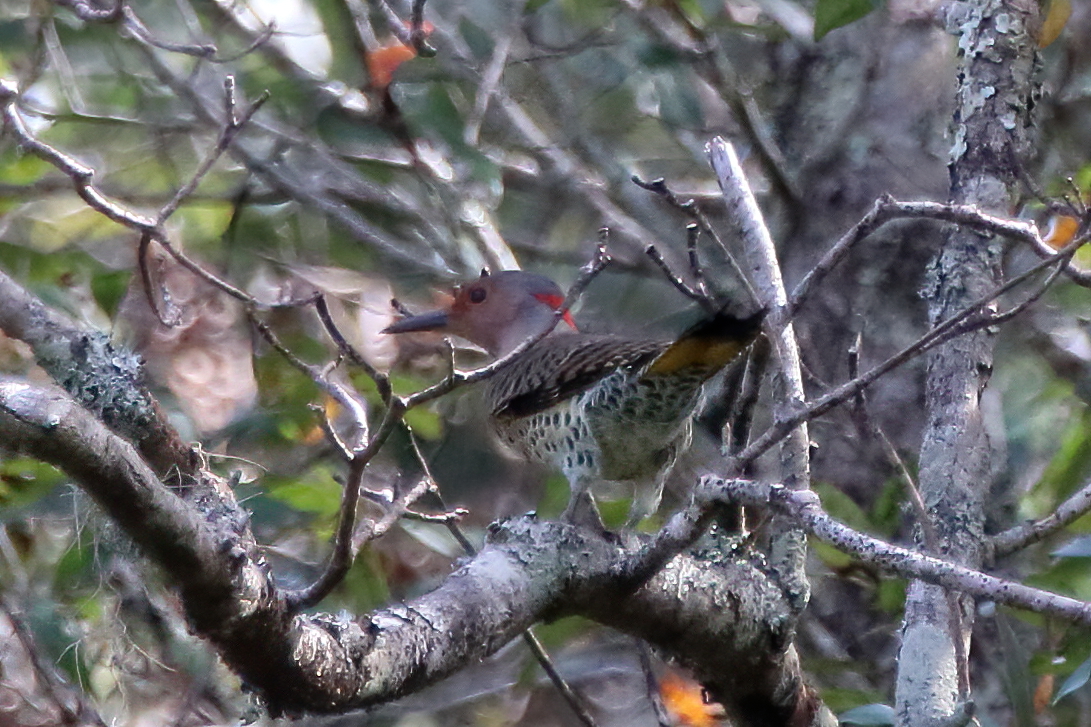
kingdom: Animalia
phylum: Chordata
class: Aves
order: Piciformes
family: Picidae
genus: Colaptes
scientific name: Colaptes auratus
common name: Northern flicker
